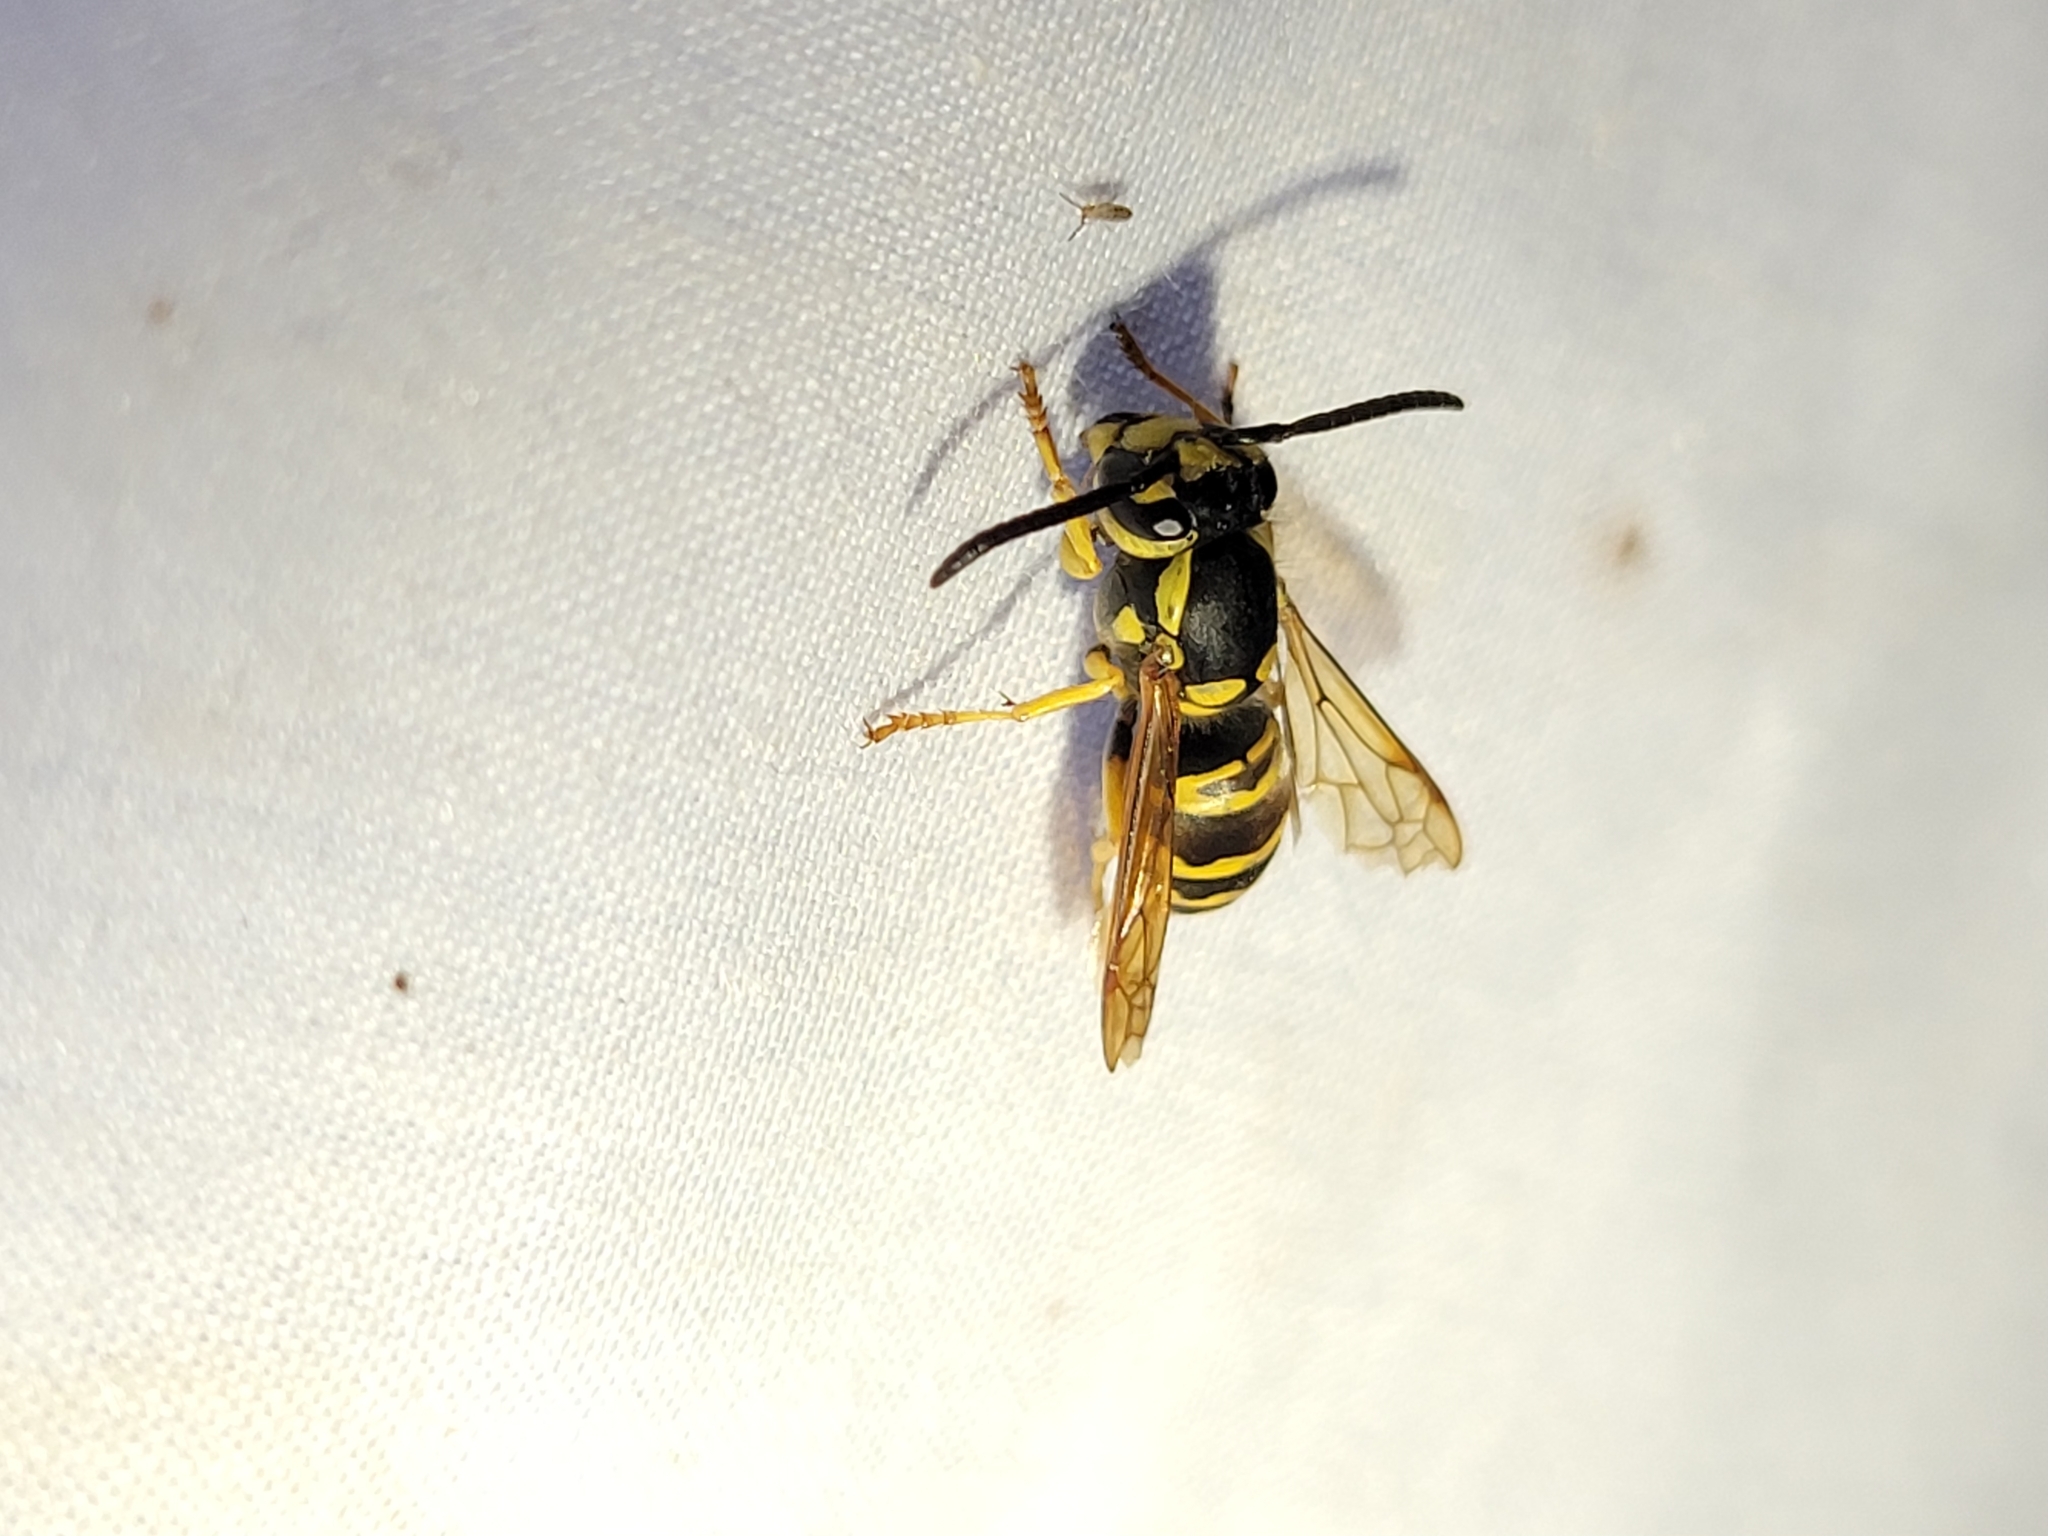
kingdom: Animalia
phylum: Arthropoda
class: Insecta
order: Hymenoptera
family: Vespidae
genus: Vespula
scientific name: Vespula maculifrons
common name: Eastern yellowjacket
